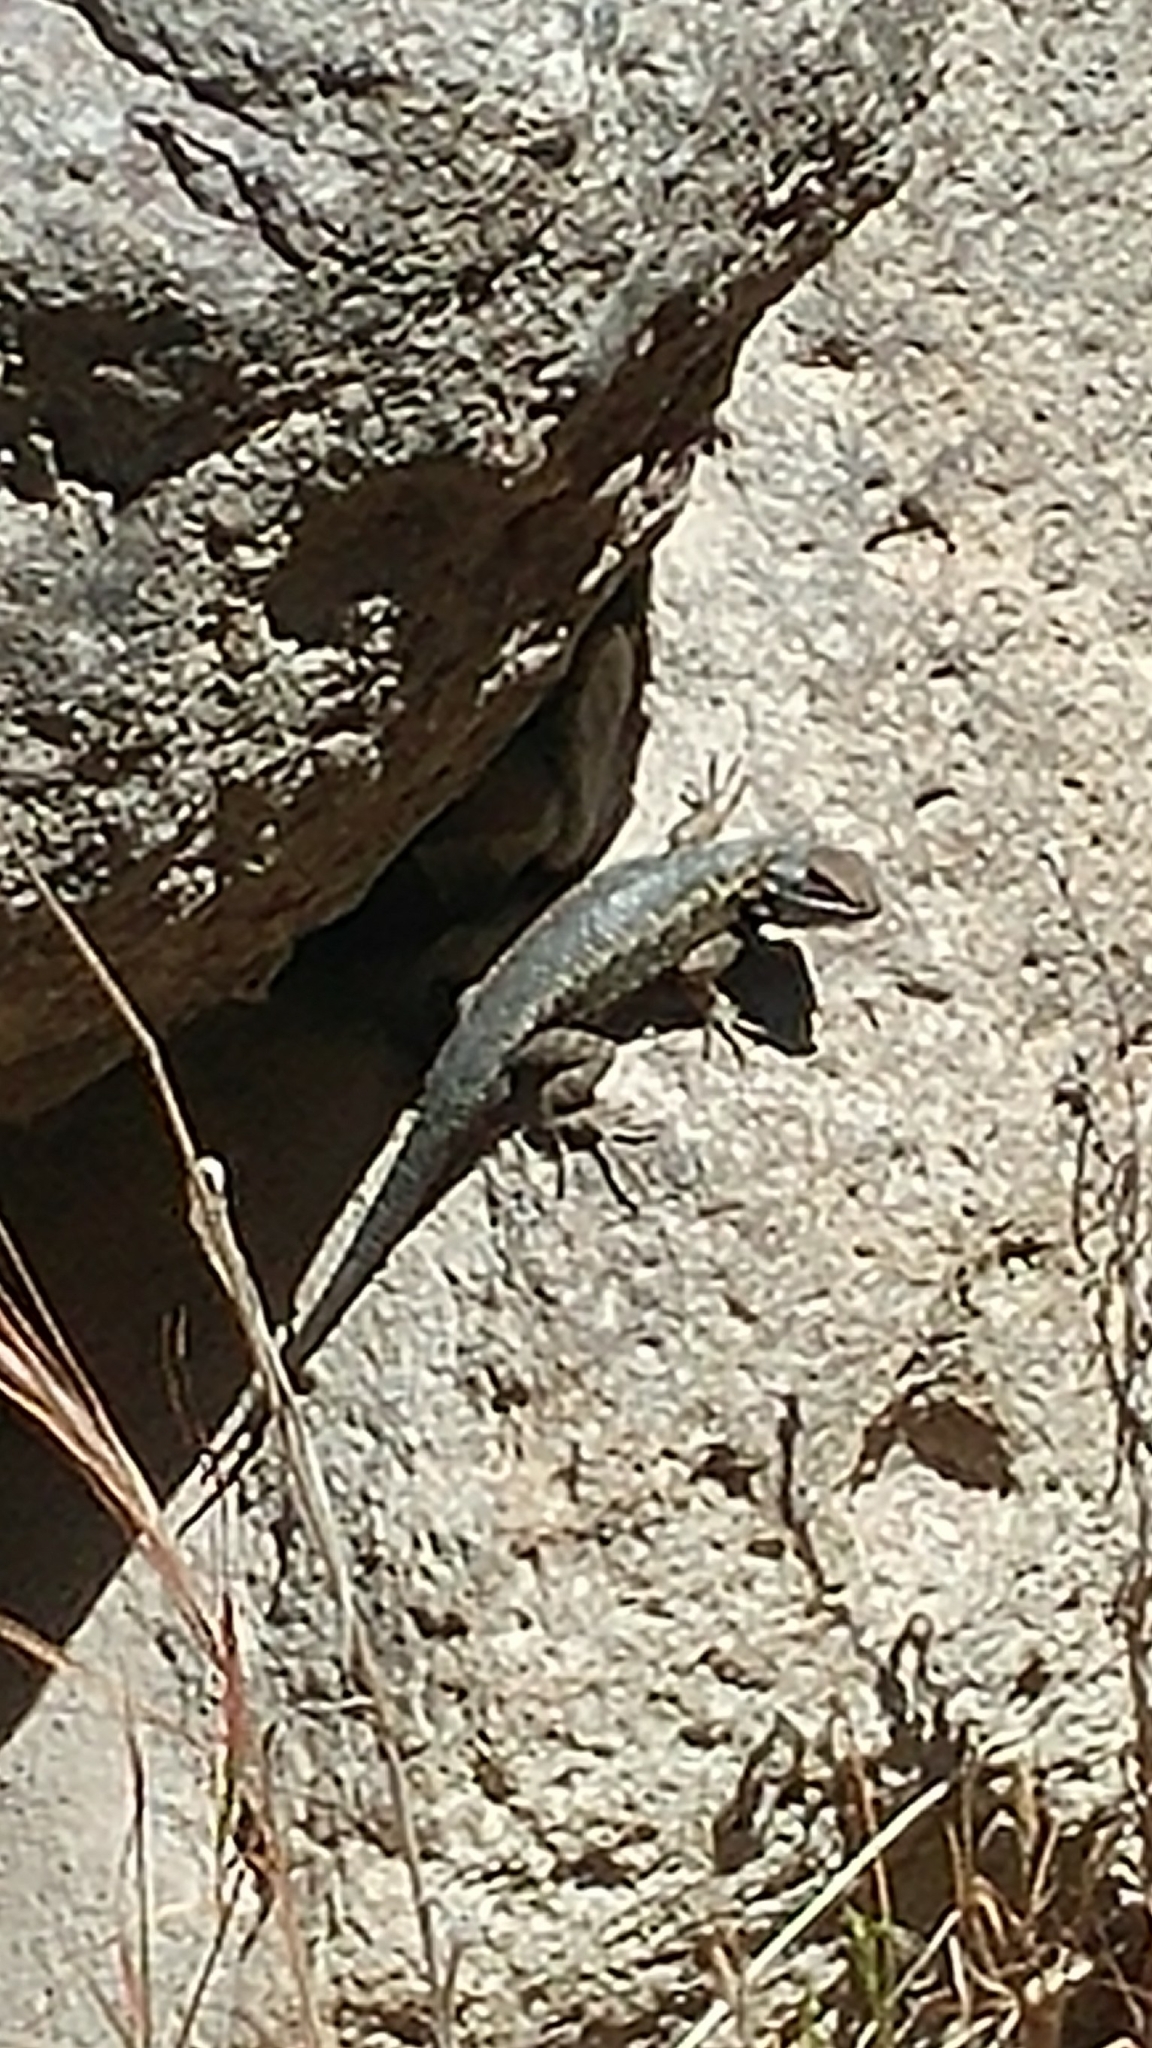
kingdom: Animalia
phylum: Chordata
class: Squamata
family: Phrynosomatidae
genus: Sceloporus
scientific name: Sceloporus becki
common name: Island fence lizard
